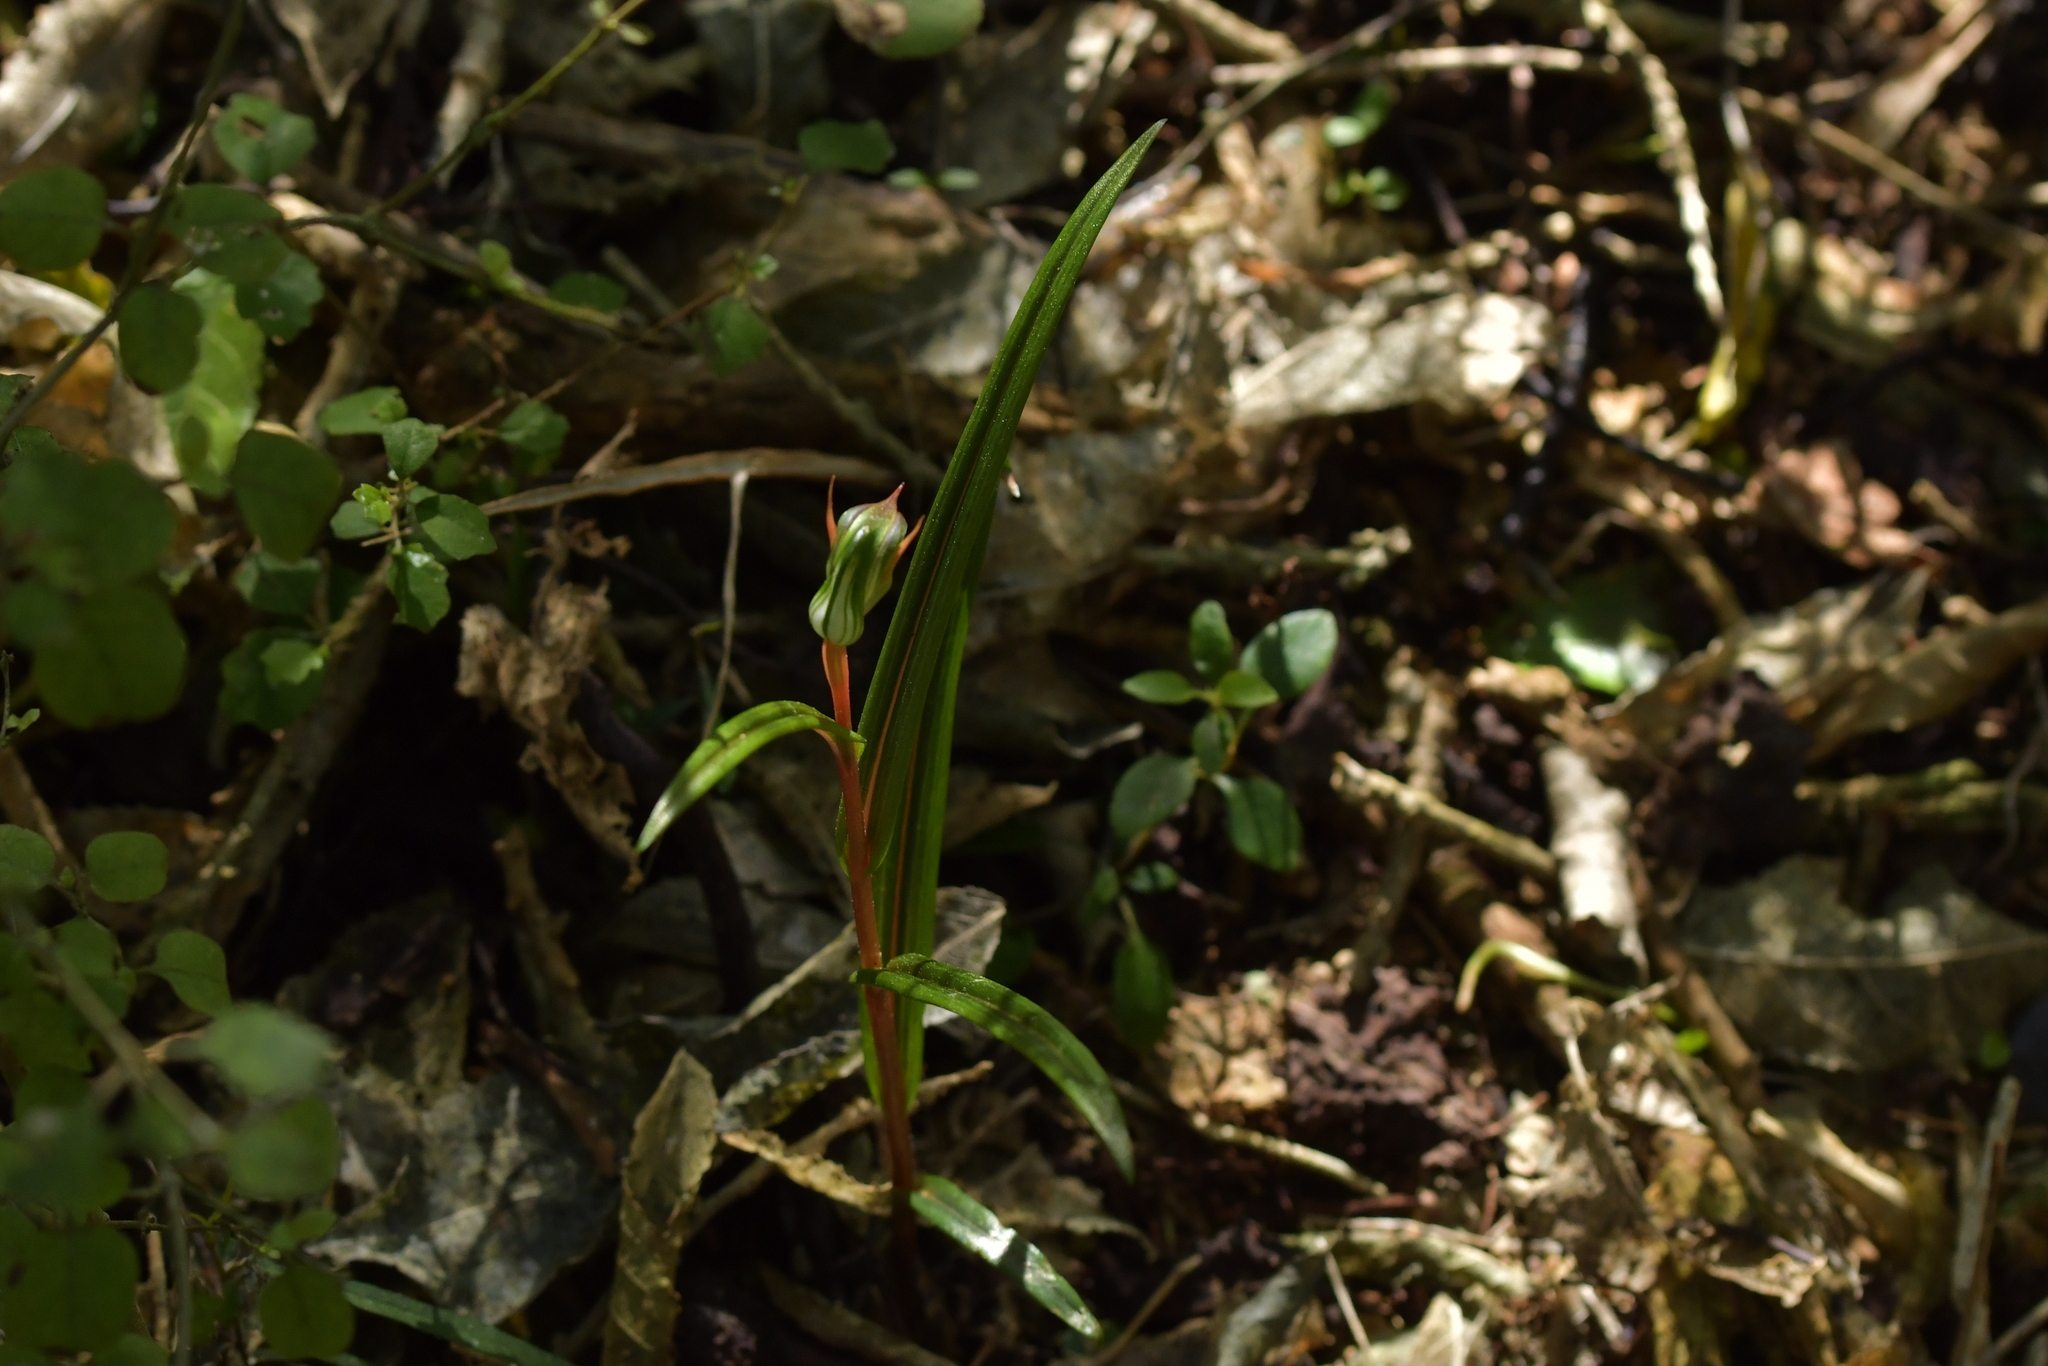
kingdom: Plantae
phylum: Tracheophyta
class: Liliopsida
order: Asparagales
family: Orchidaceae
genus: Pterostylis
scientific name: Pterostylis graminea
